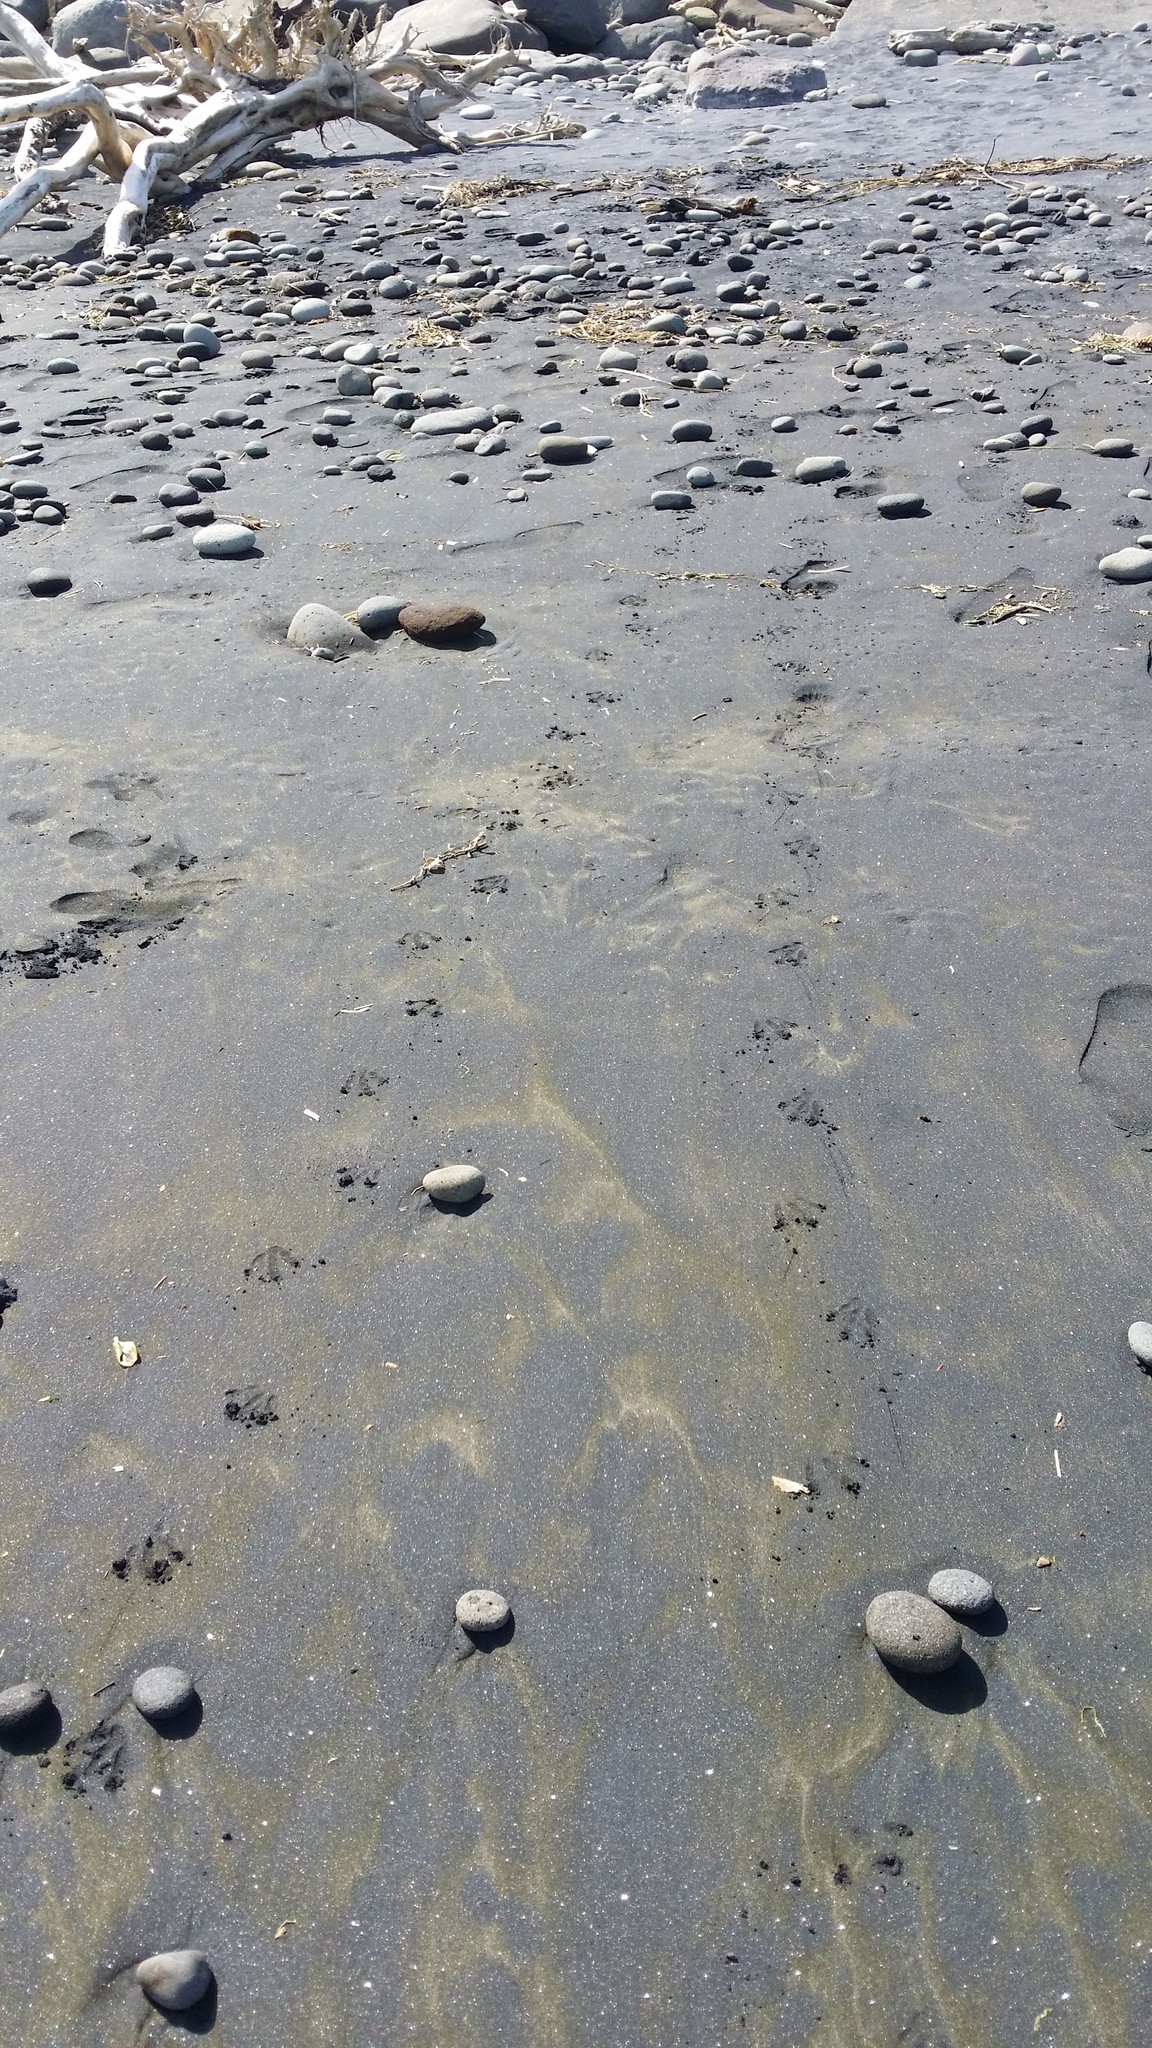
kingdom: Animalia
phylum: Chordata
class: Aves
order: Sphenisciformes
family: Spheniscidae
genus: Eudyptula
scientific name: Eudyptula minor
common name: Little penguin
